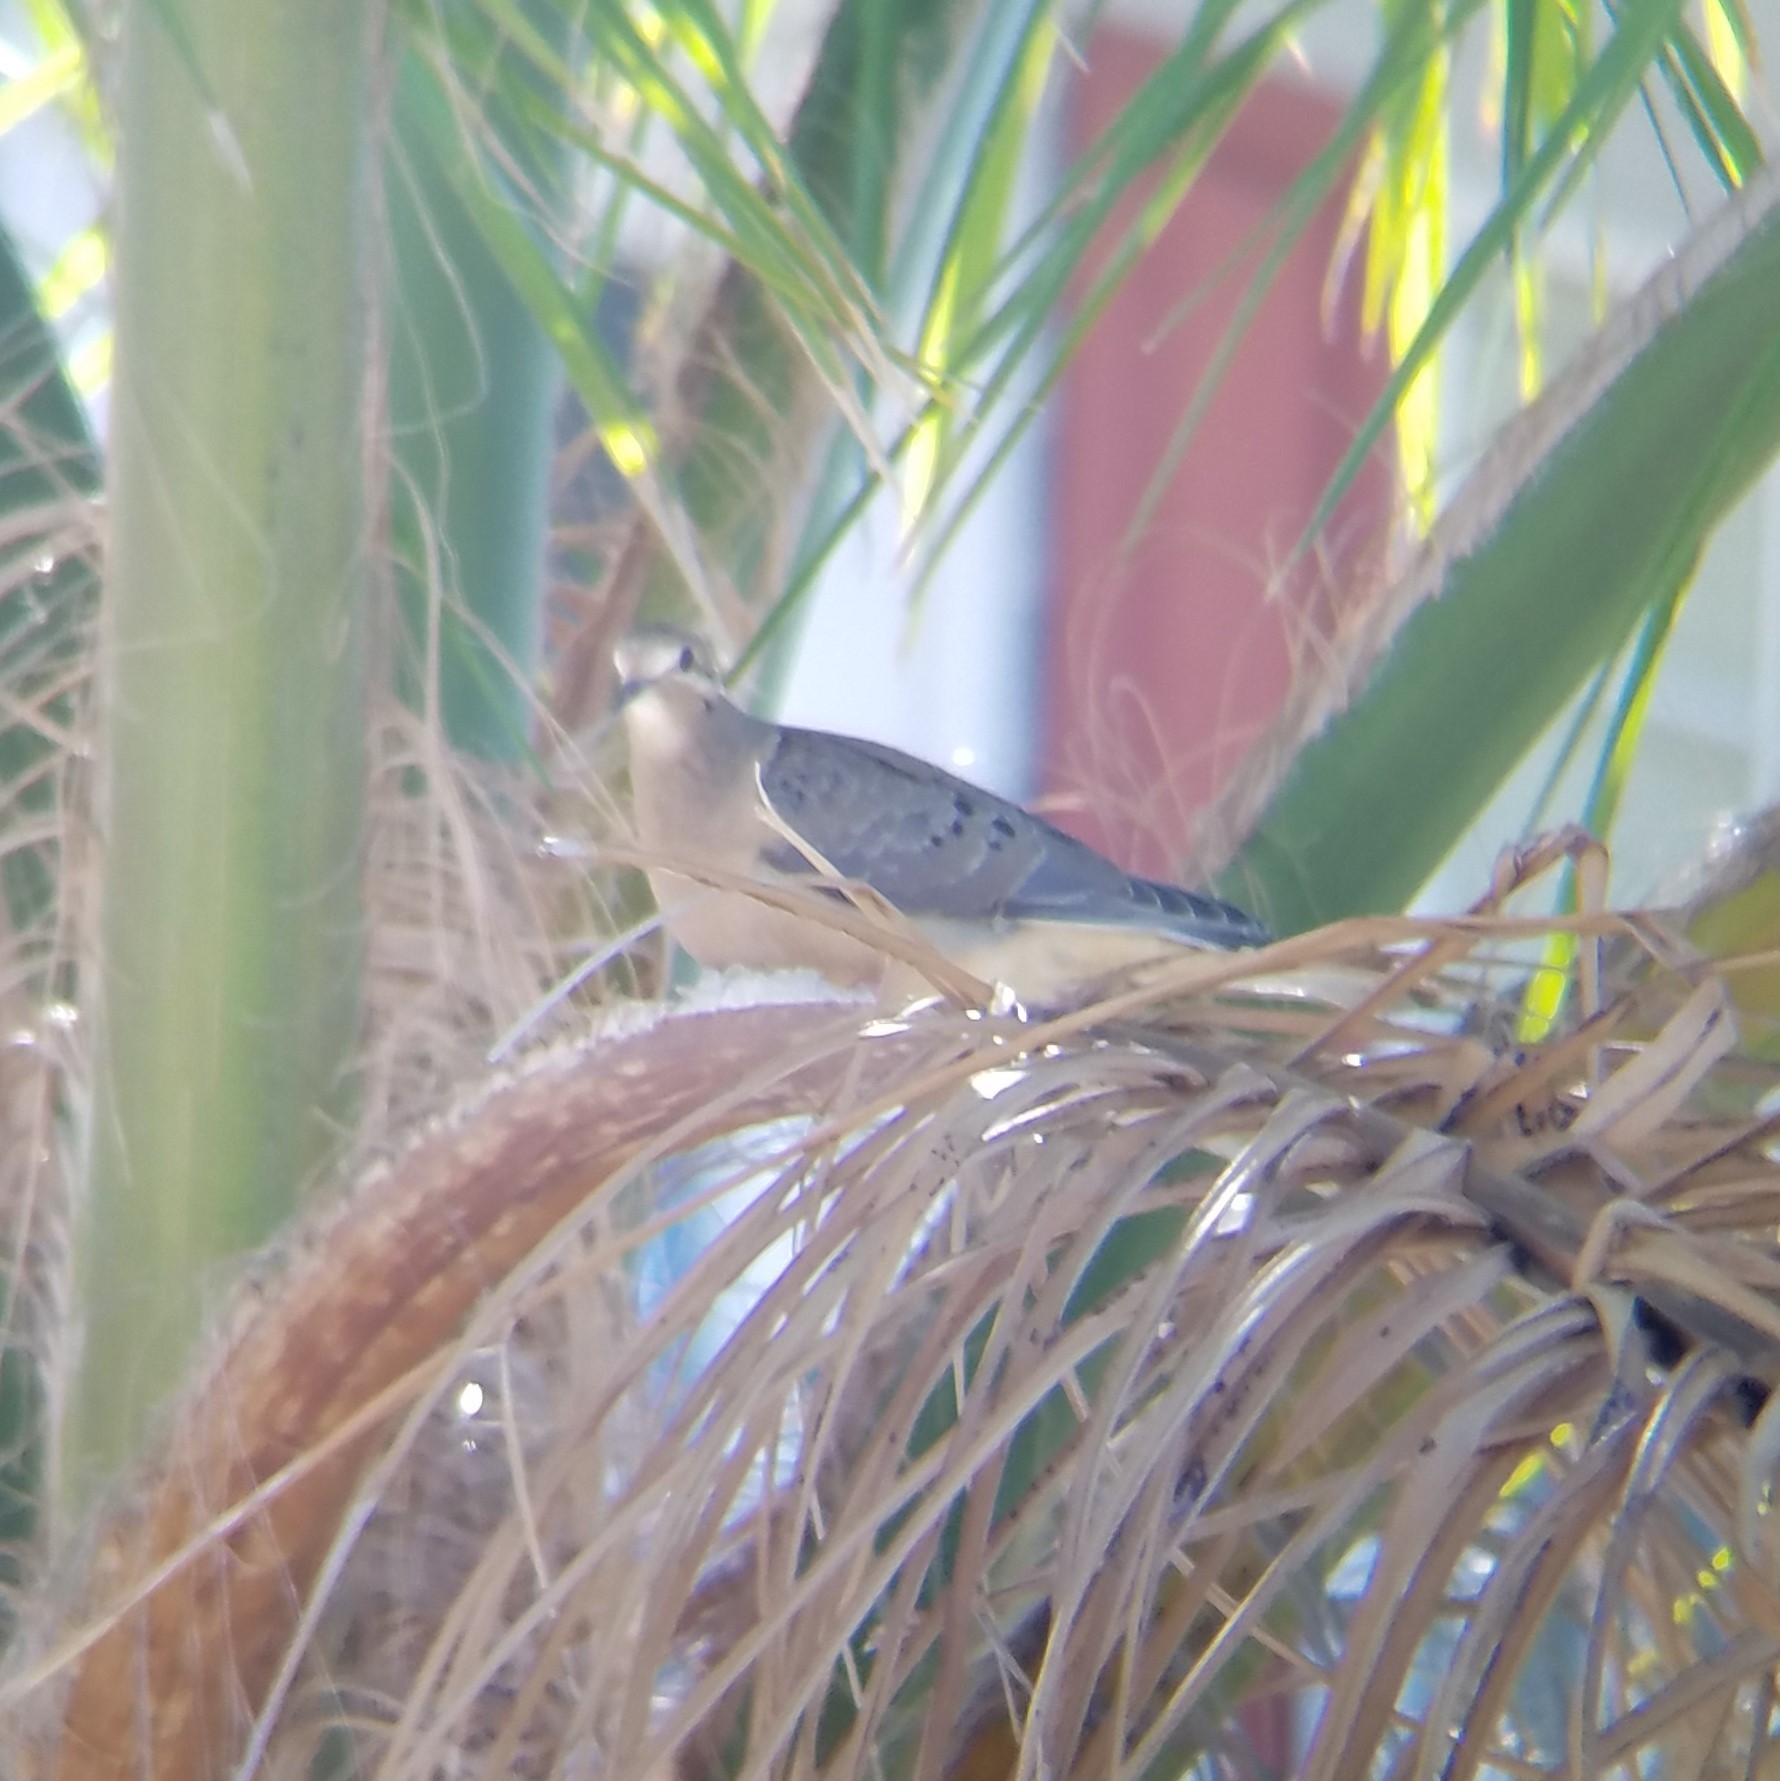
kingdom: Animalia
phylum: Chordata
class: Aves
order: Columbiformes
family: Columbidae
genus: Zenaida
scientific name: Zenaida macroura
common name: Mourning dove
